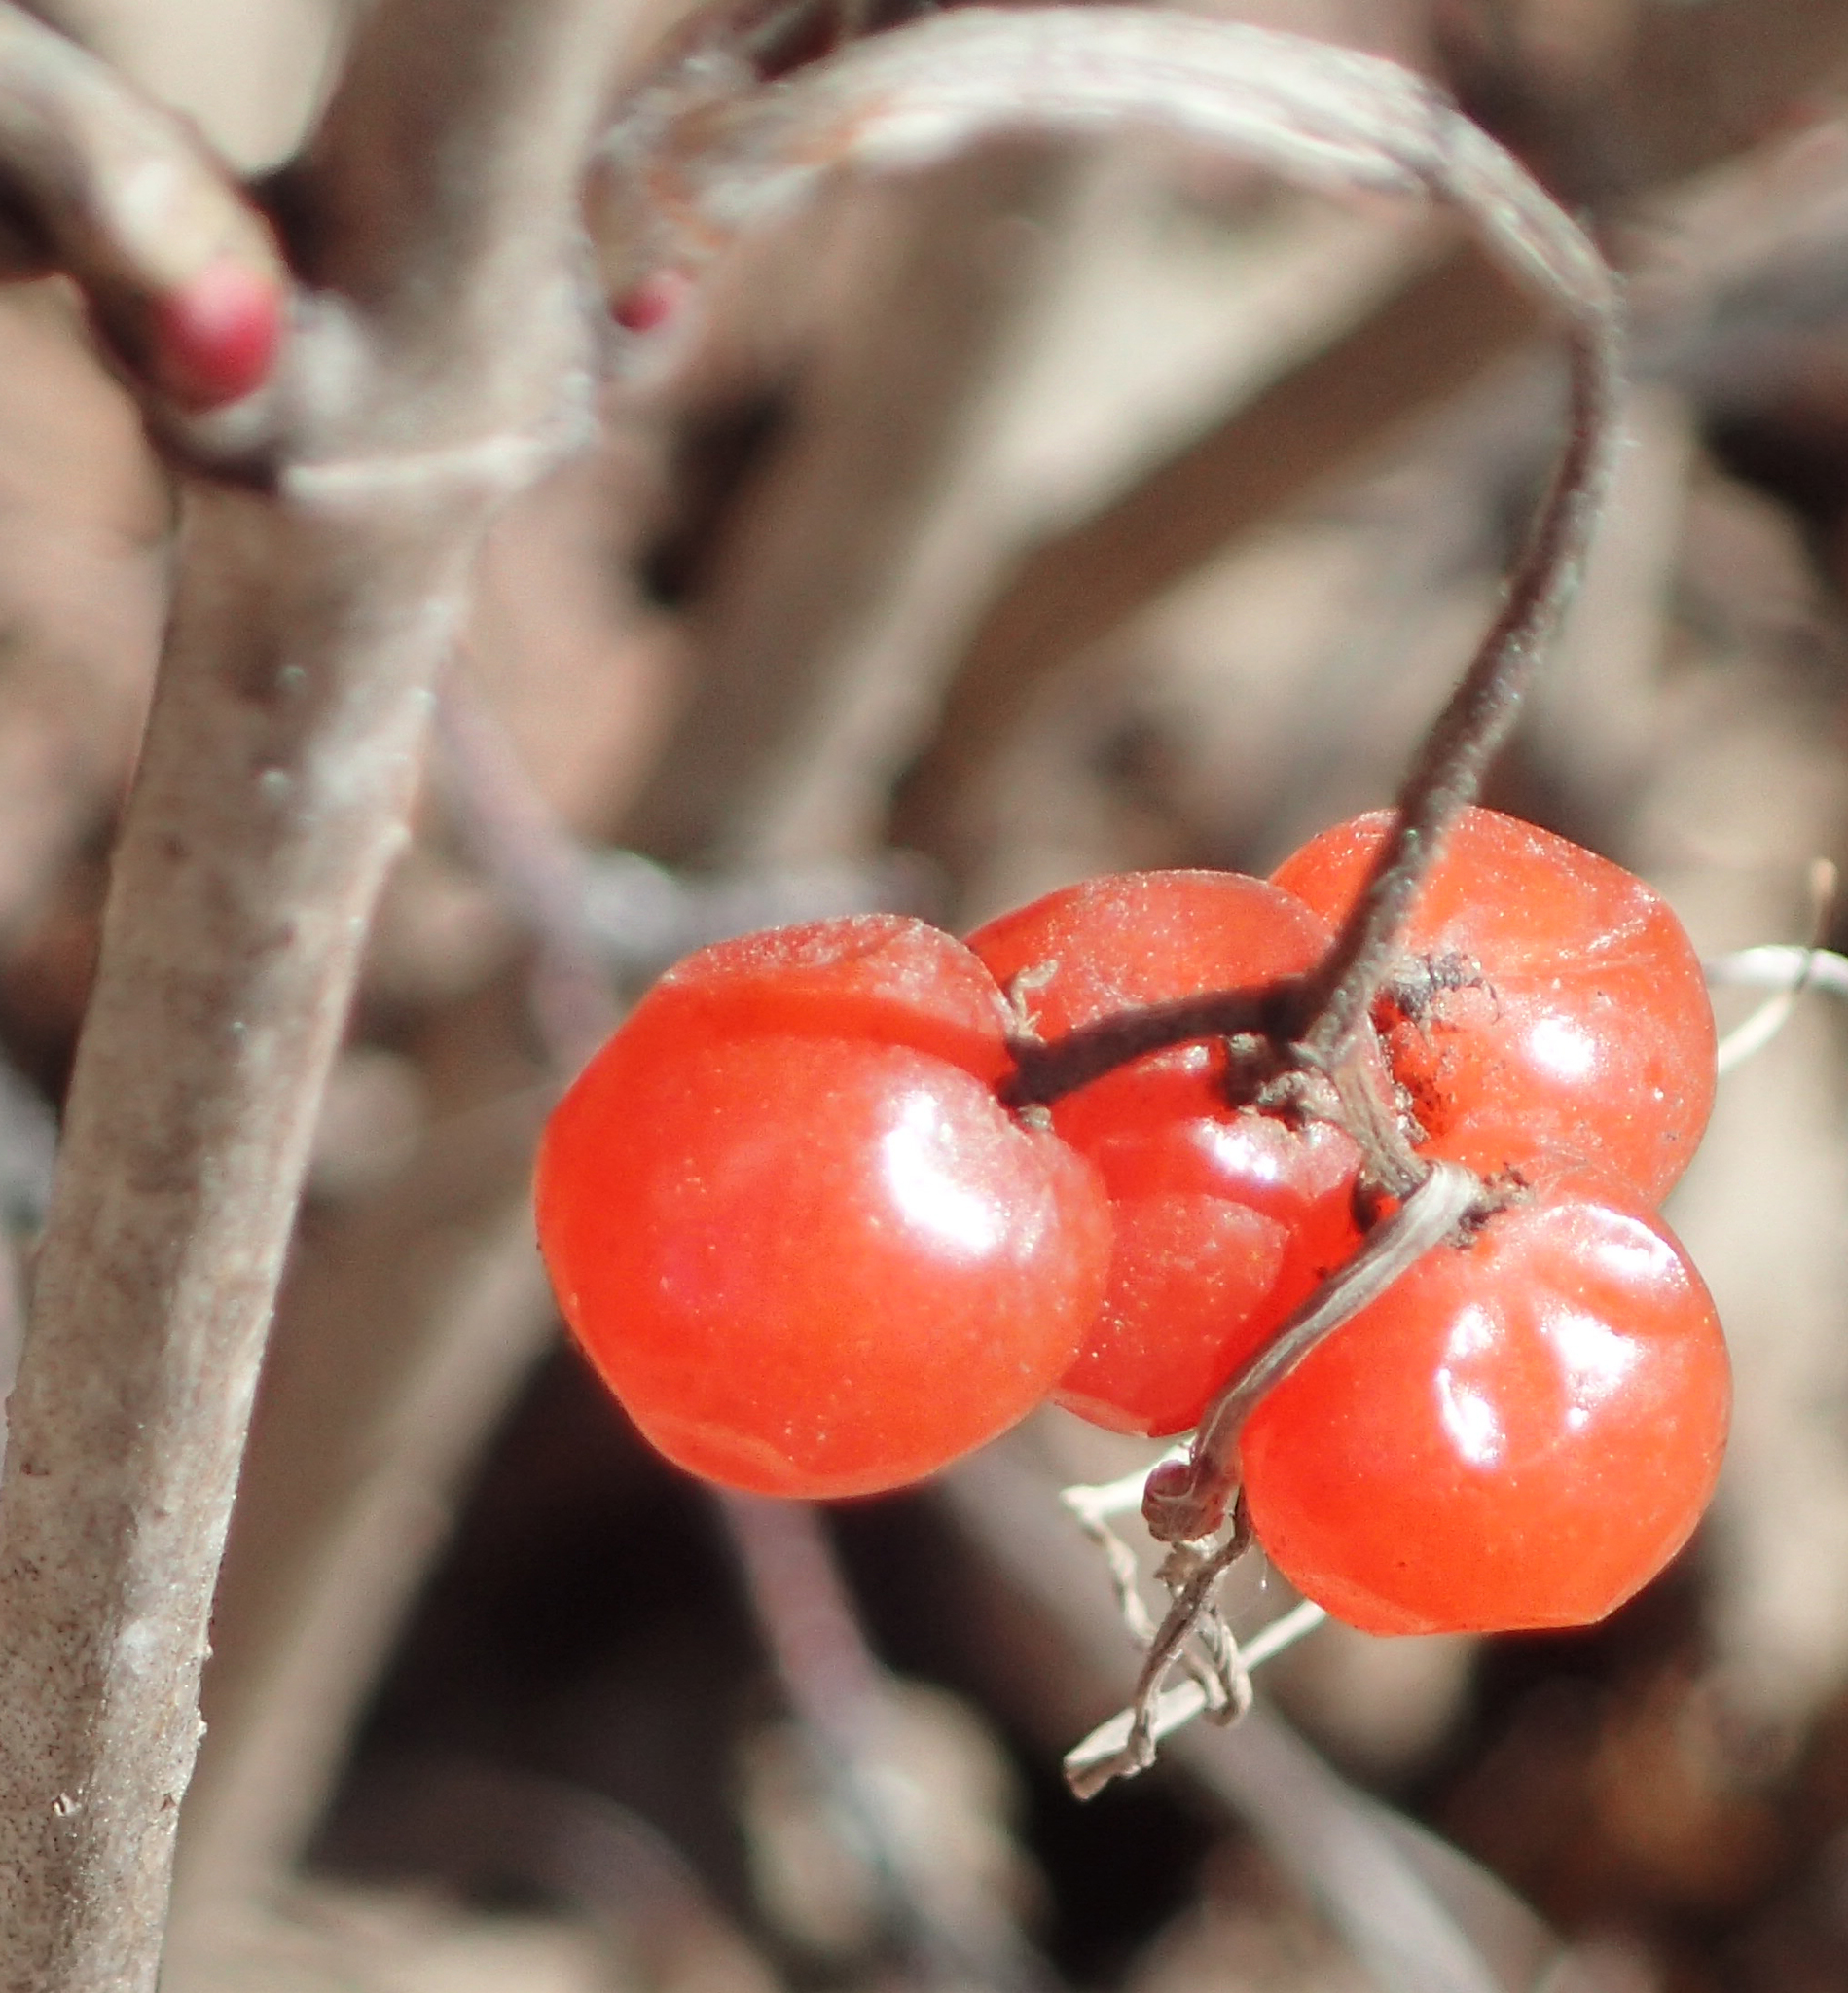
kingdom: Plantae
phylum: Tracheophyta
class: Magnoliopsida
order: Dipsacales
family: Viburnaceae
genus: Viburnum
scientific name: Viburnum edule
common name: Mooseberry
